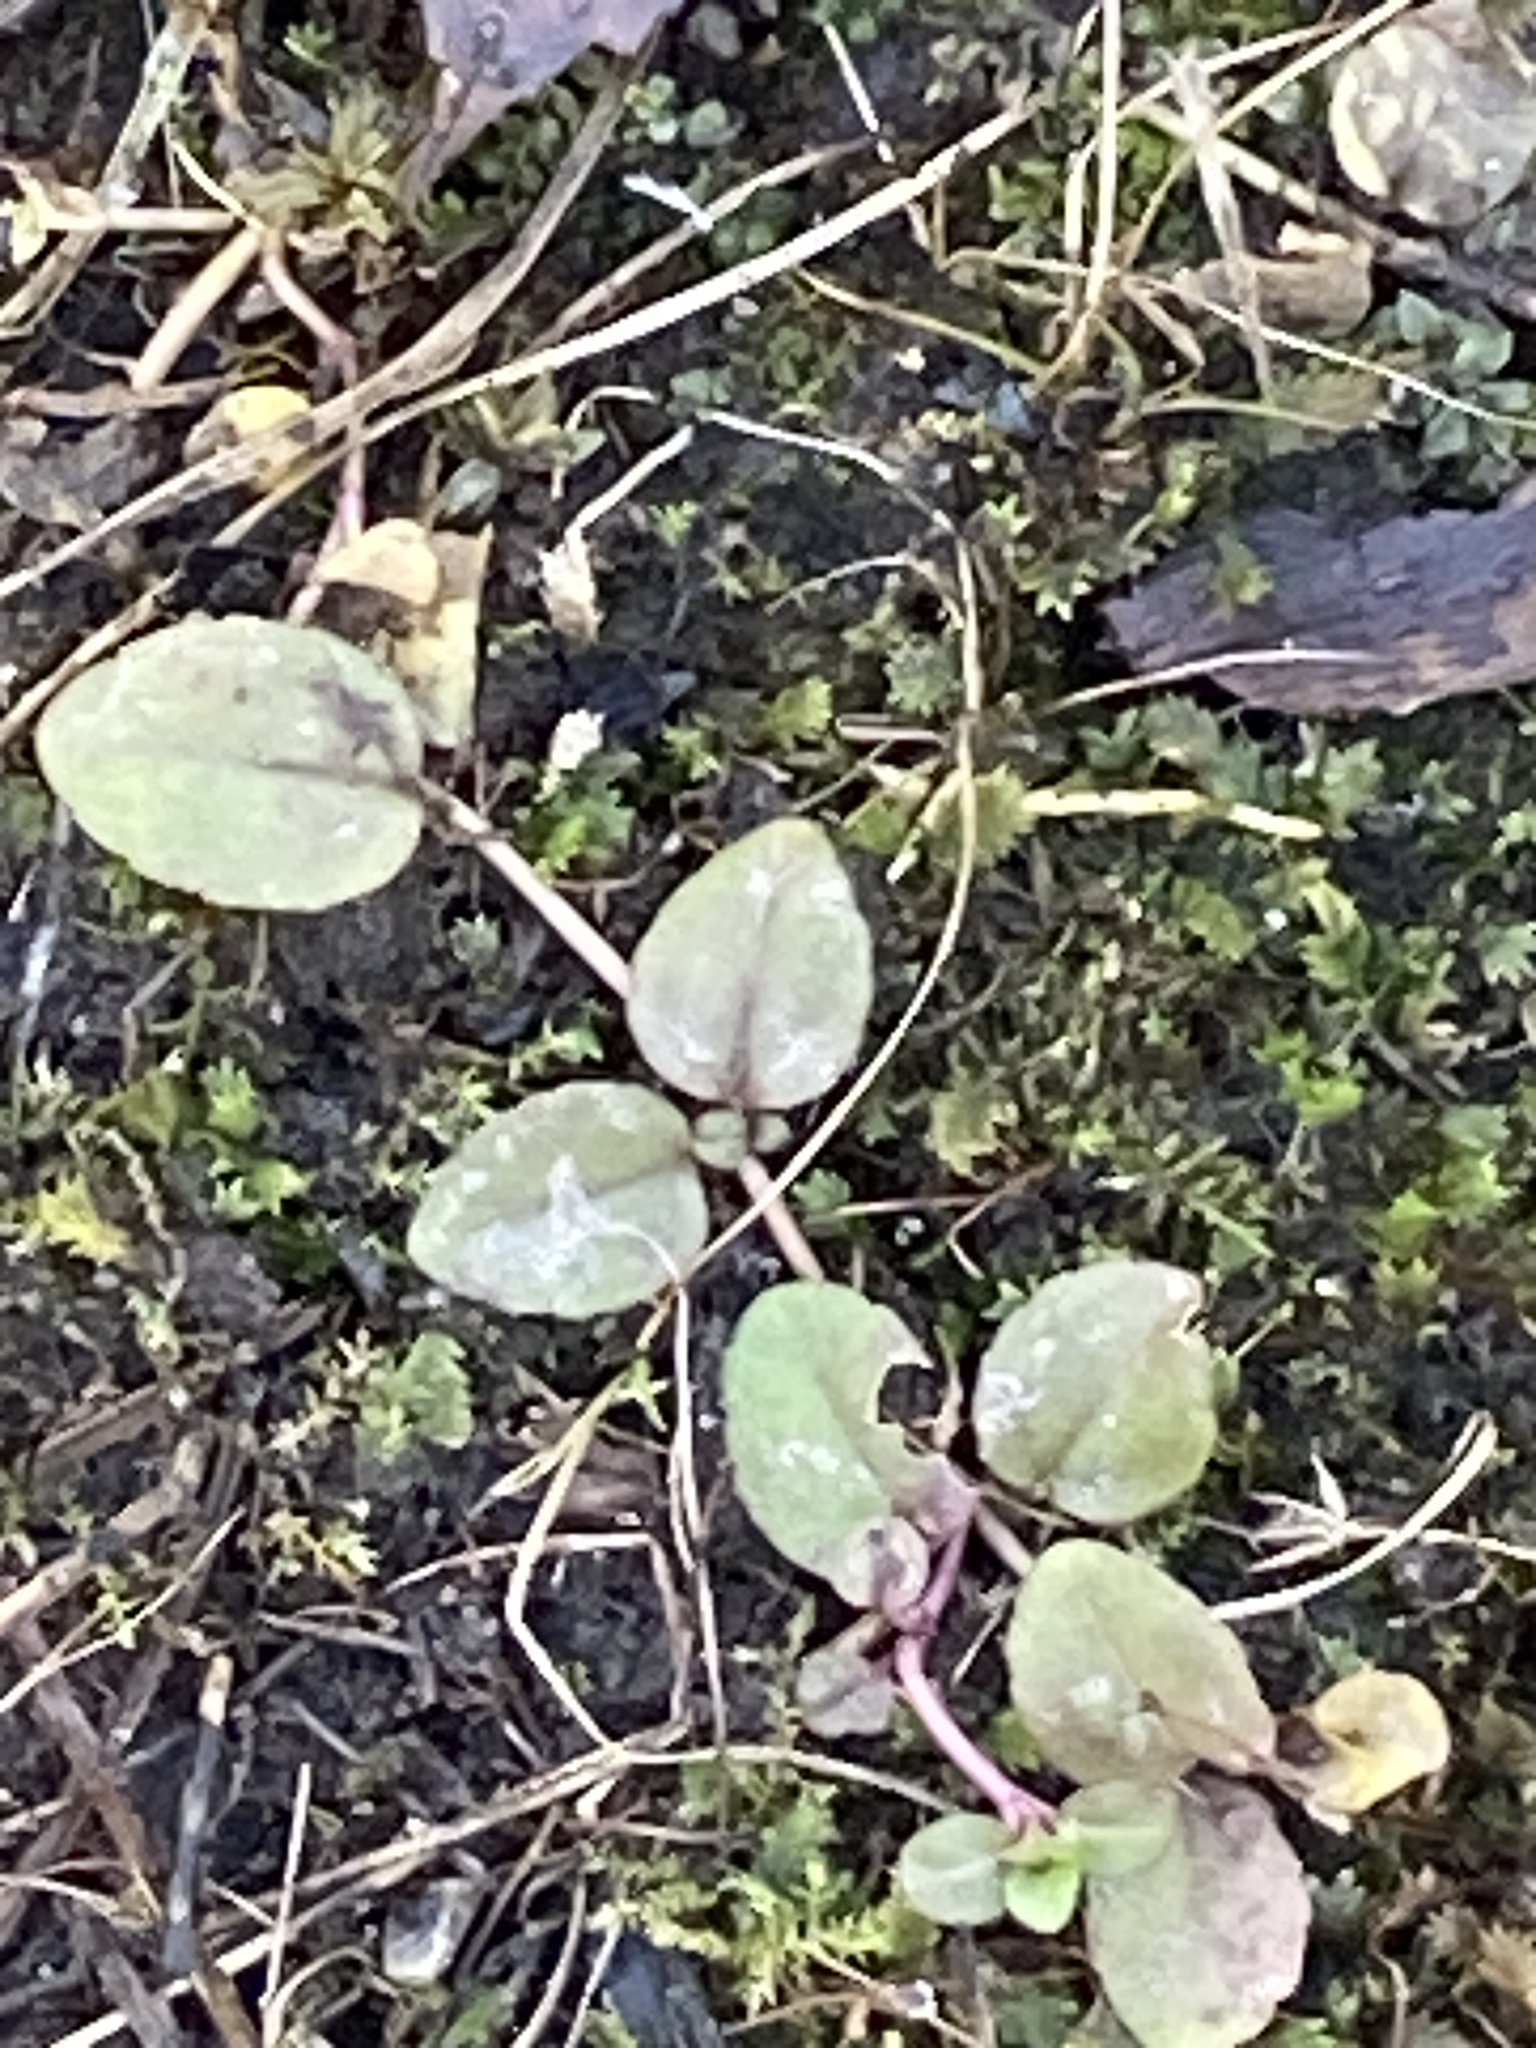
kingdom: Plantae
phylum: Tracheophyta
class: Magnoliopsida
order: Lamiales
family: Plantaginaceae
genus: Veronica
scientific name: Veronica serpyllifolia
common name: Thyme-leaved speedwell
